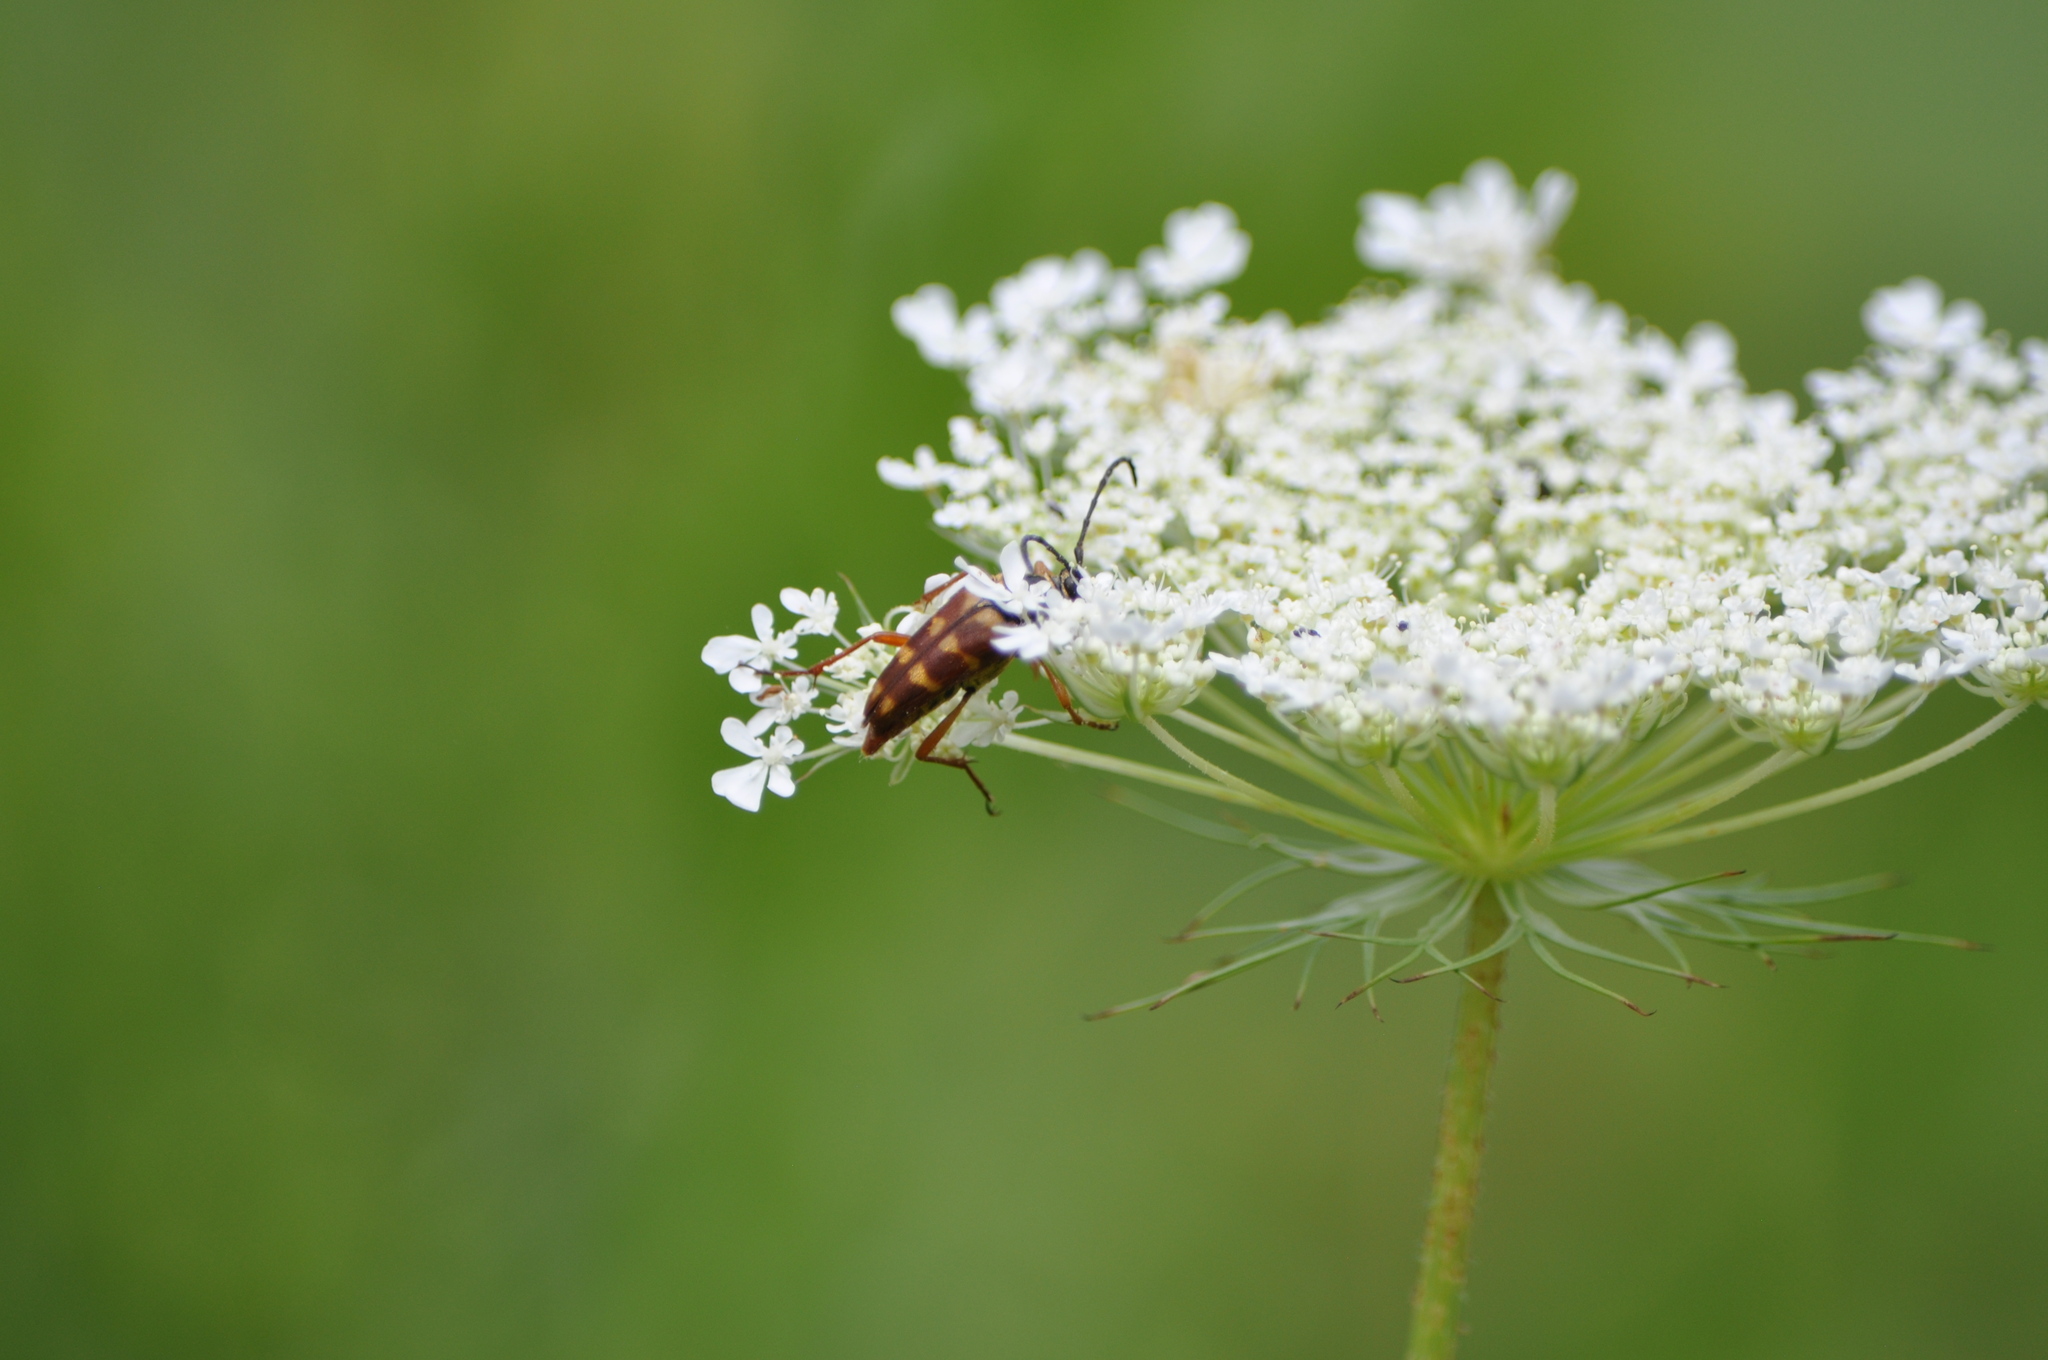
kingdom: Animalia
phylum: Arthropoda
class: Insecta
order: Coleoptera
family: Cerambycidae
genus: Typocerus
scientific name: Typocerus velutinus
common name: Banded longhorn beetle
